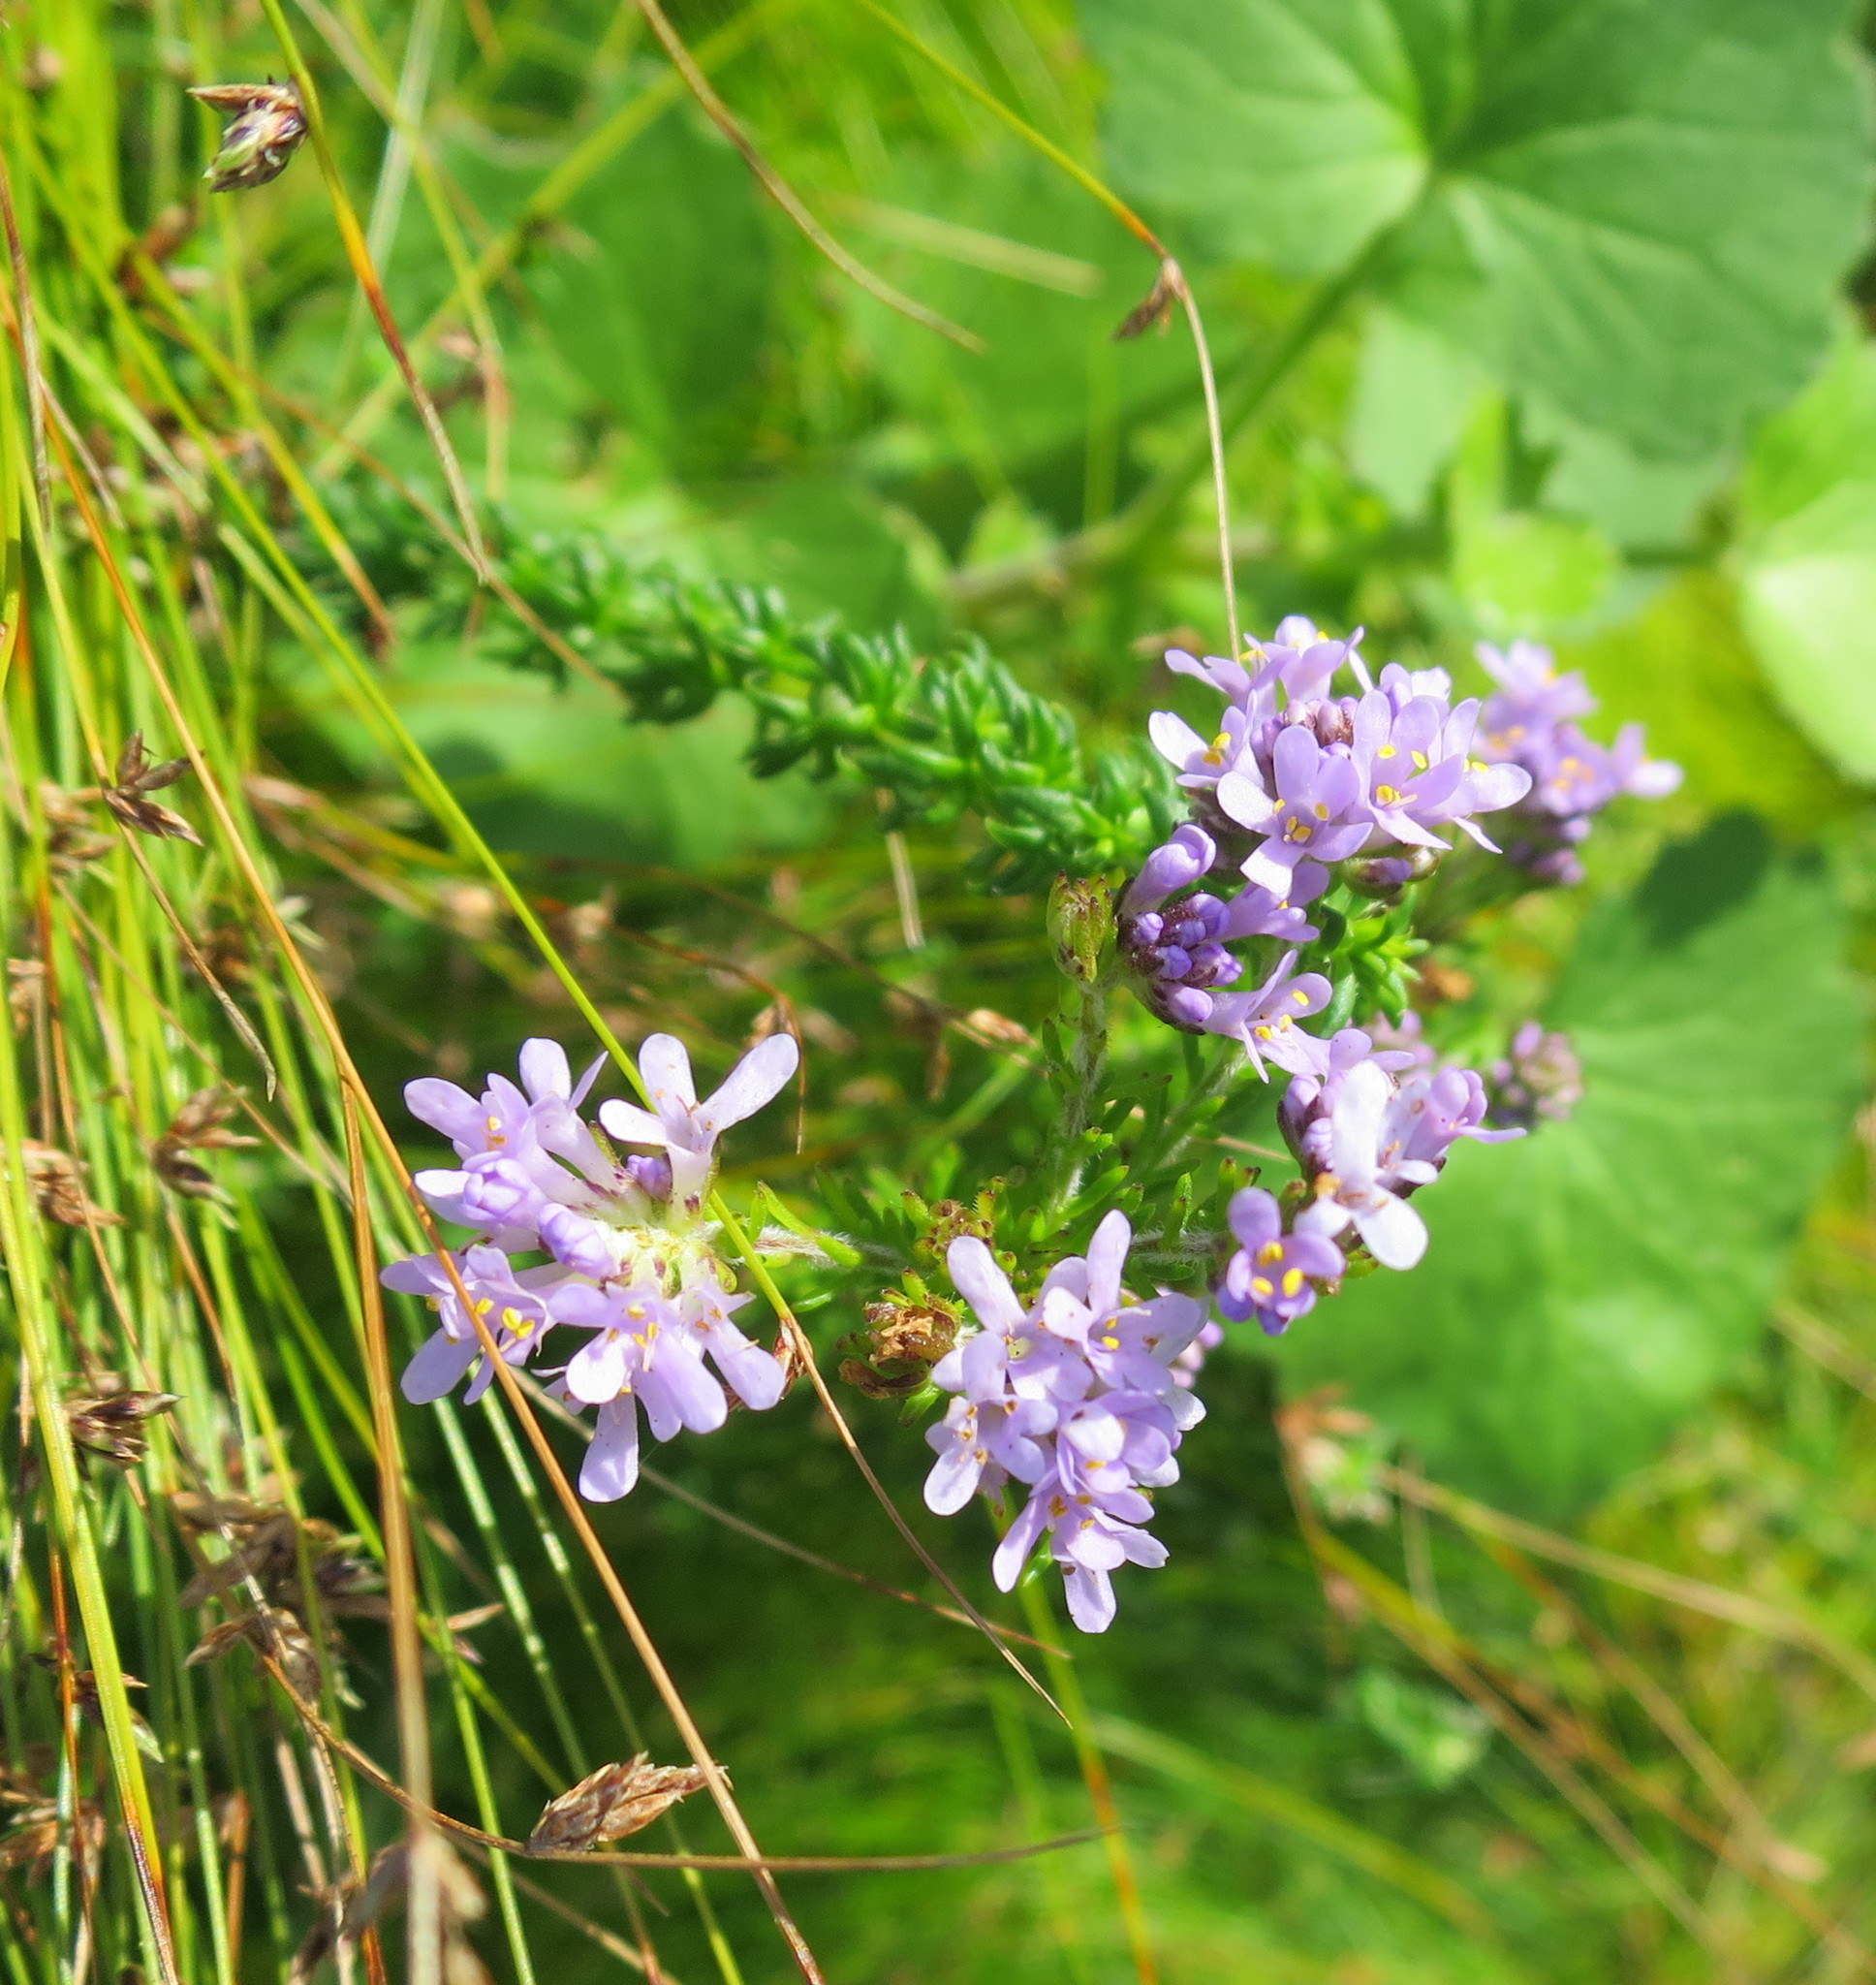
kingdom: Plantae
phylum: Tracheophyta
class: Magnoliopsida
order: Lamiales
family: Scrophulariaceae
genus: Selago
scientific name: Selago villicaulis
